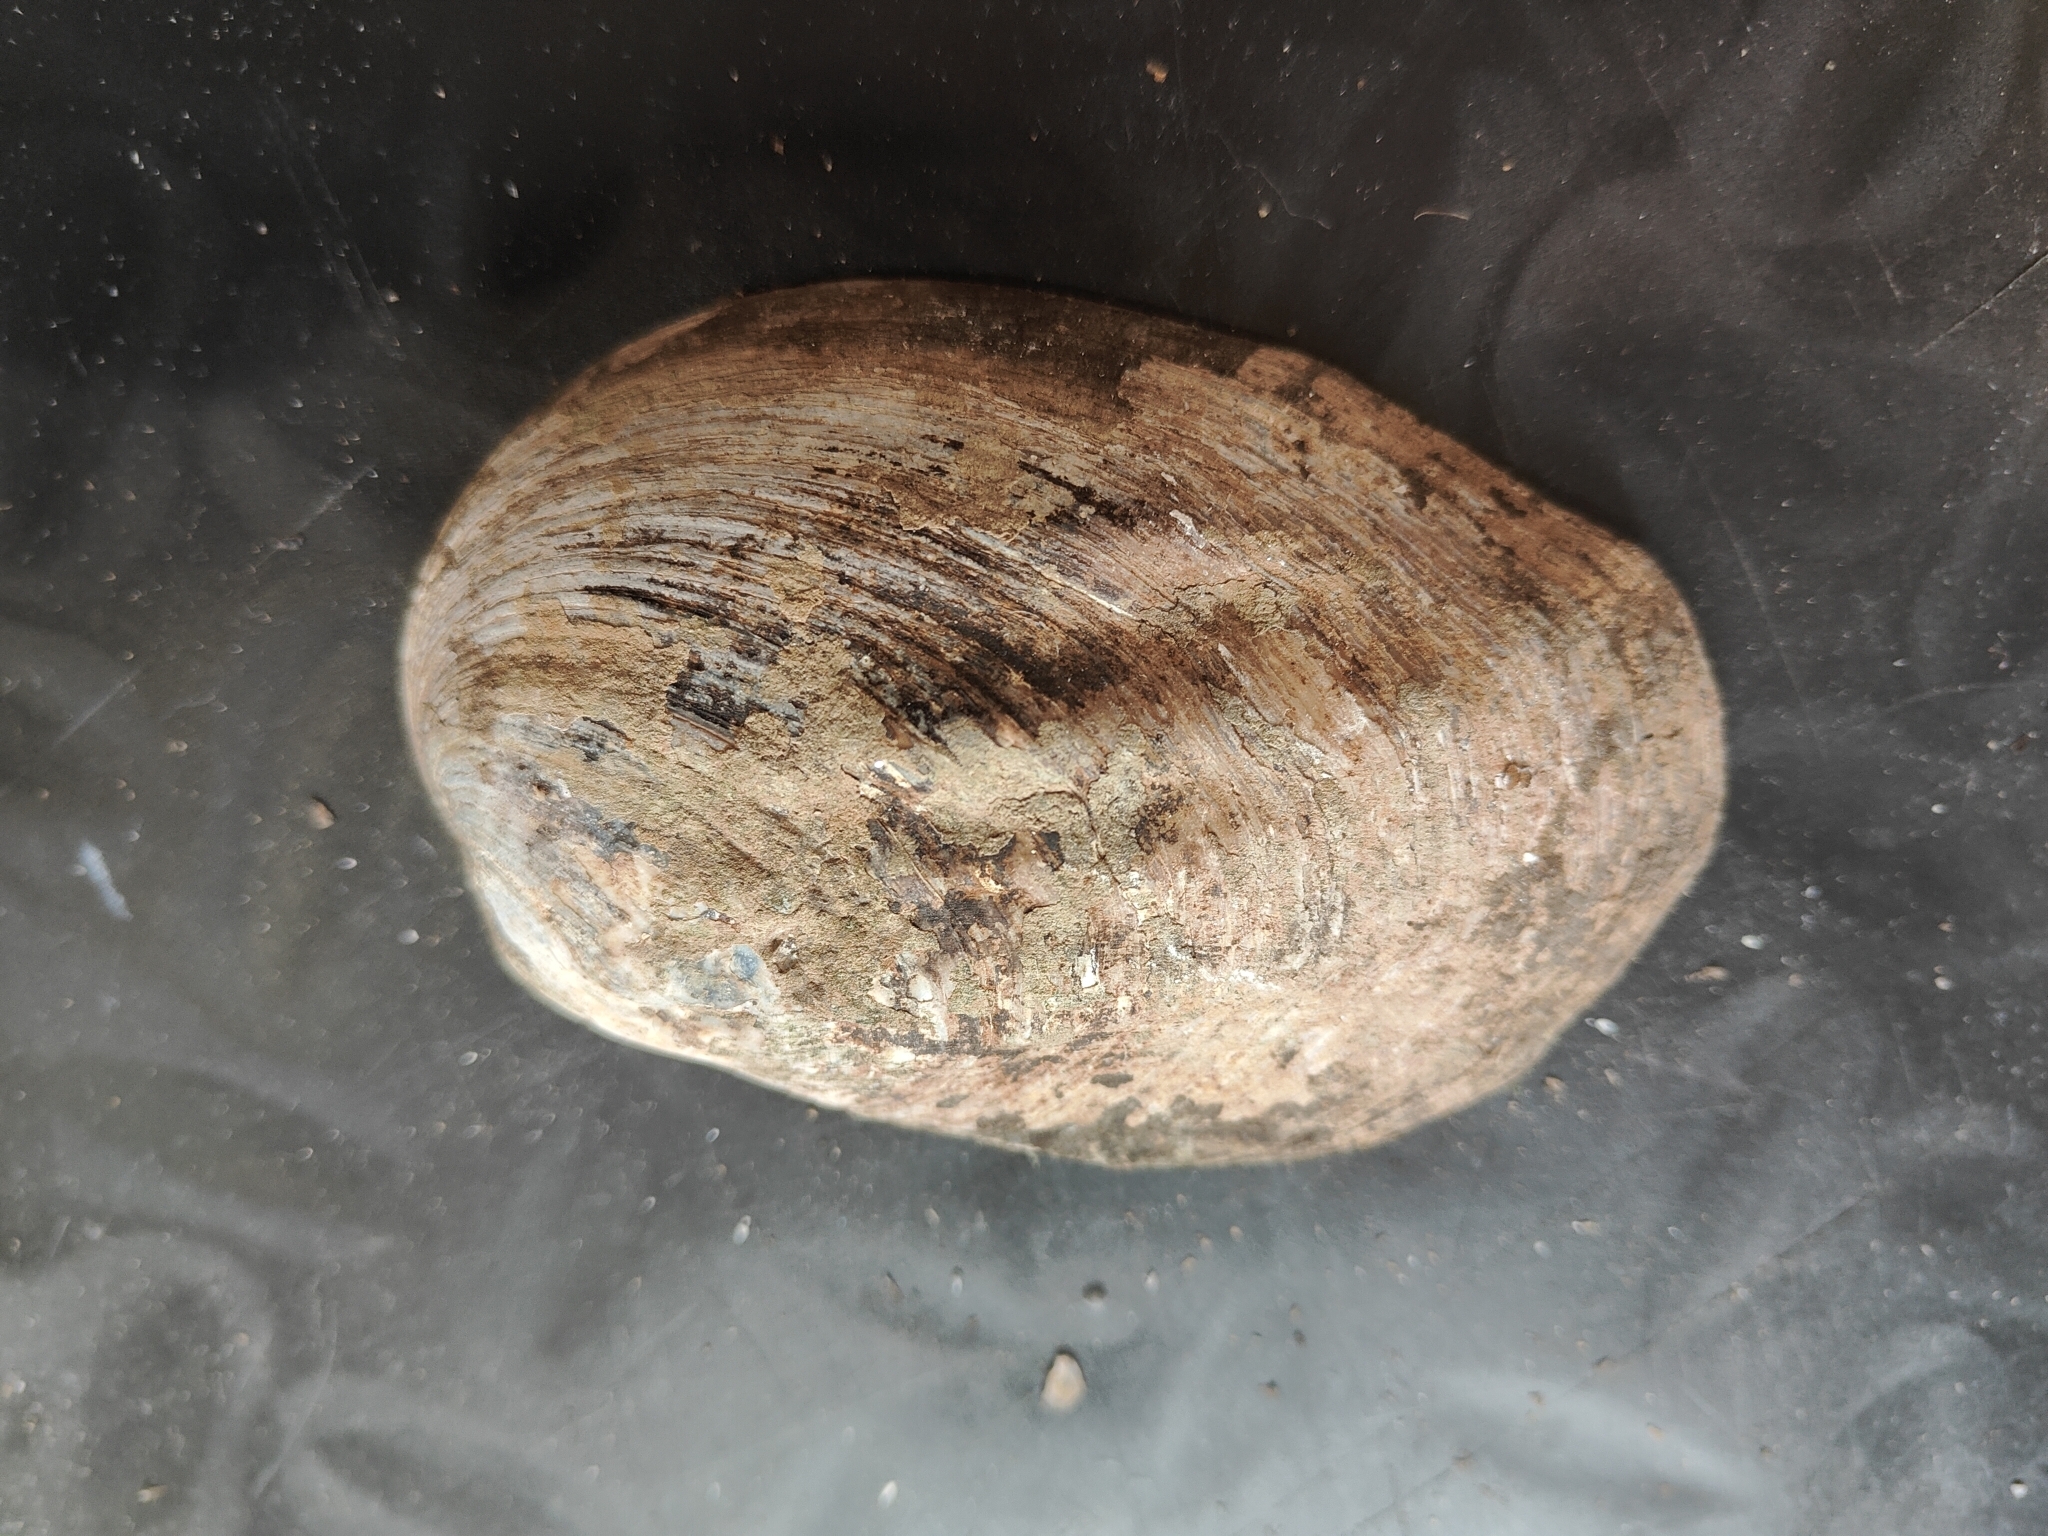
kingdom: Animalia
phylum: Mollusca
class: Bivalvia
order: Unionida
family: Unionidae
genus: Amblema
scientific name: Amblema plicata
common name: Threeridge
